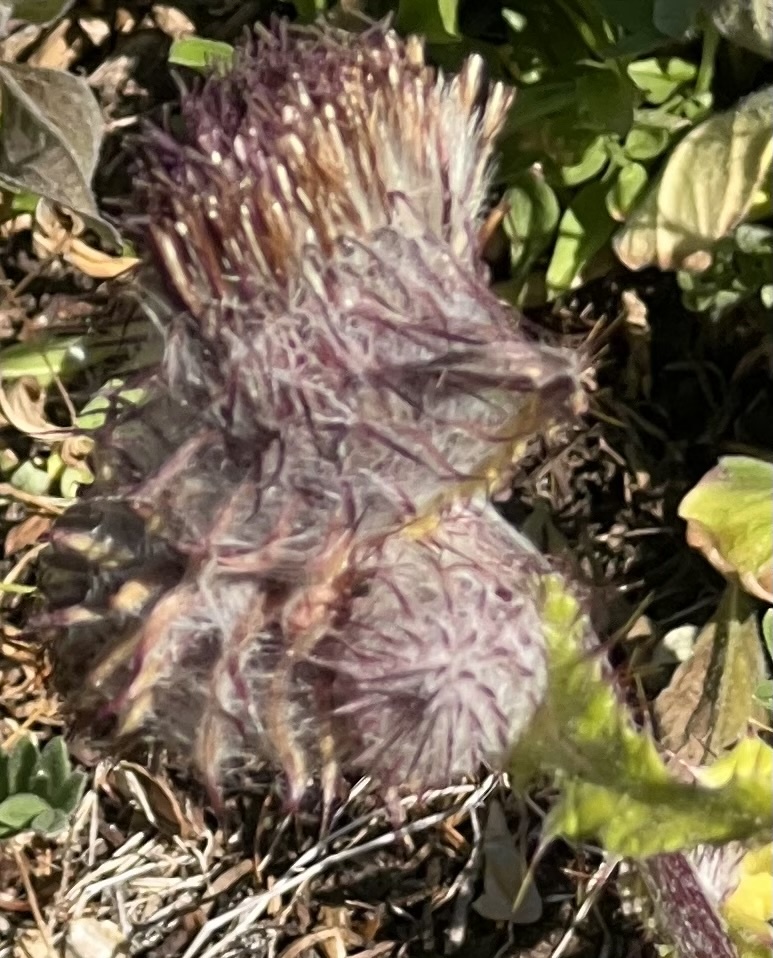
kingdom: Plantae
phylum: Tracheophyta
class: Magnoliopsida
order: Asterales
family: Asteraceae
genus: Cirsium
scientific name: Cirsium edule
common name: Indian thistle
